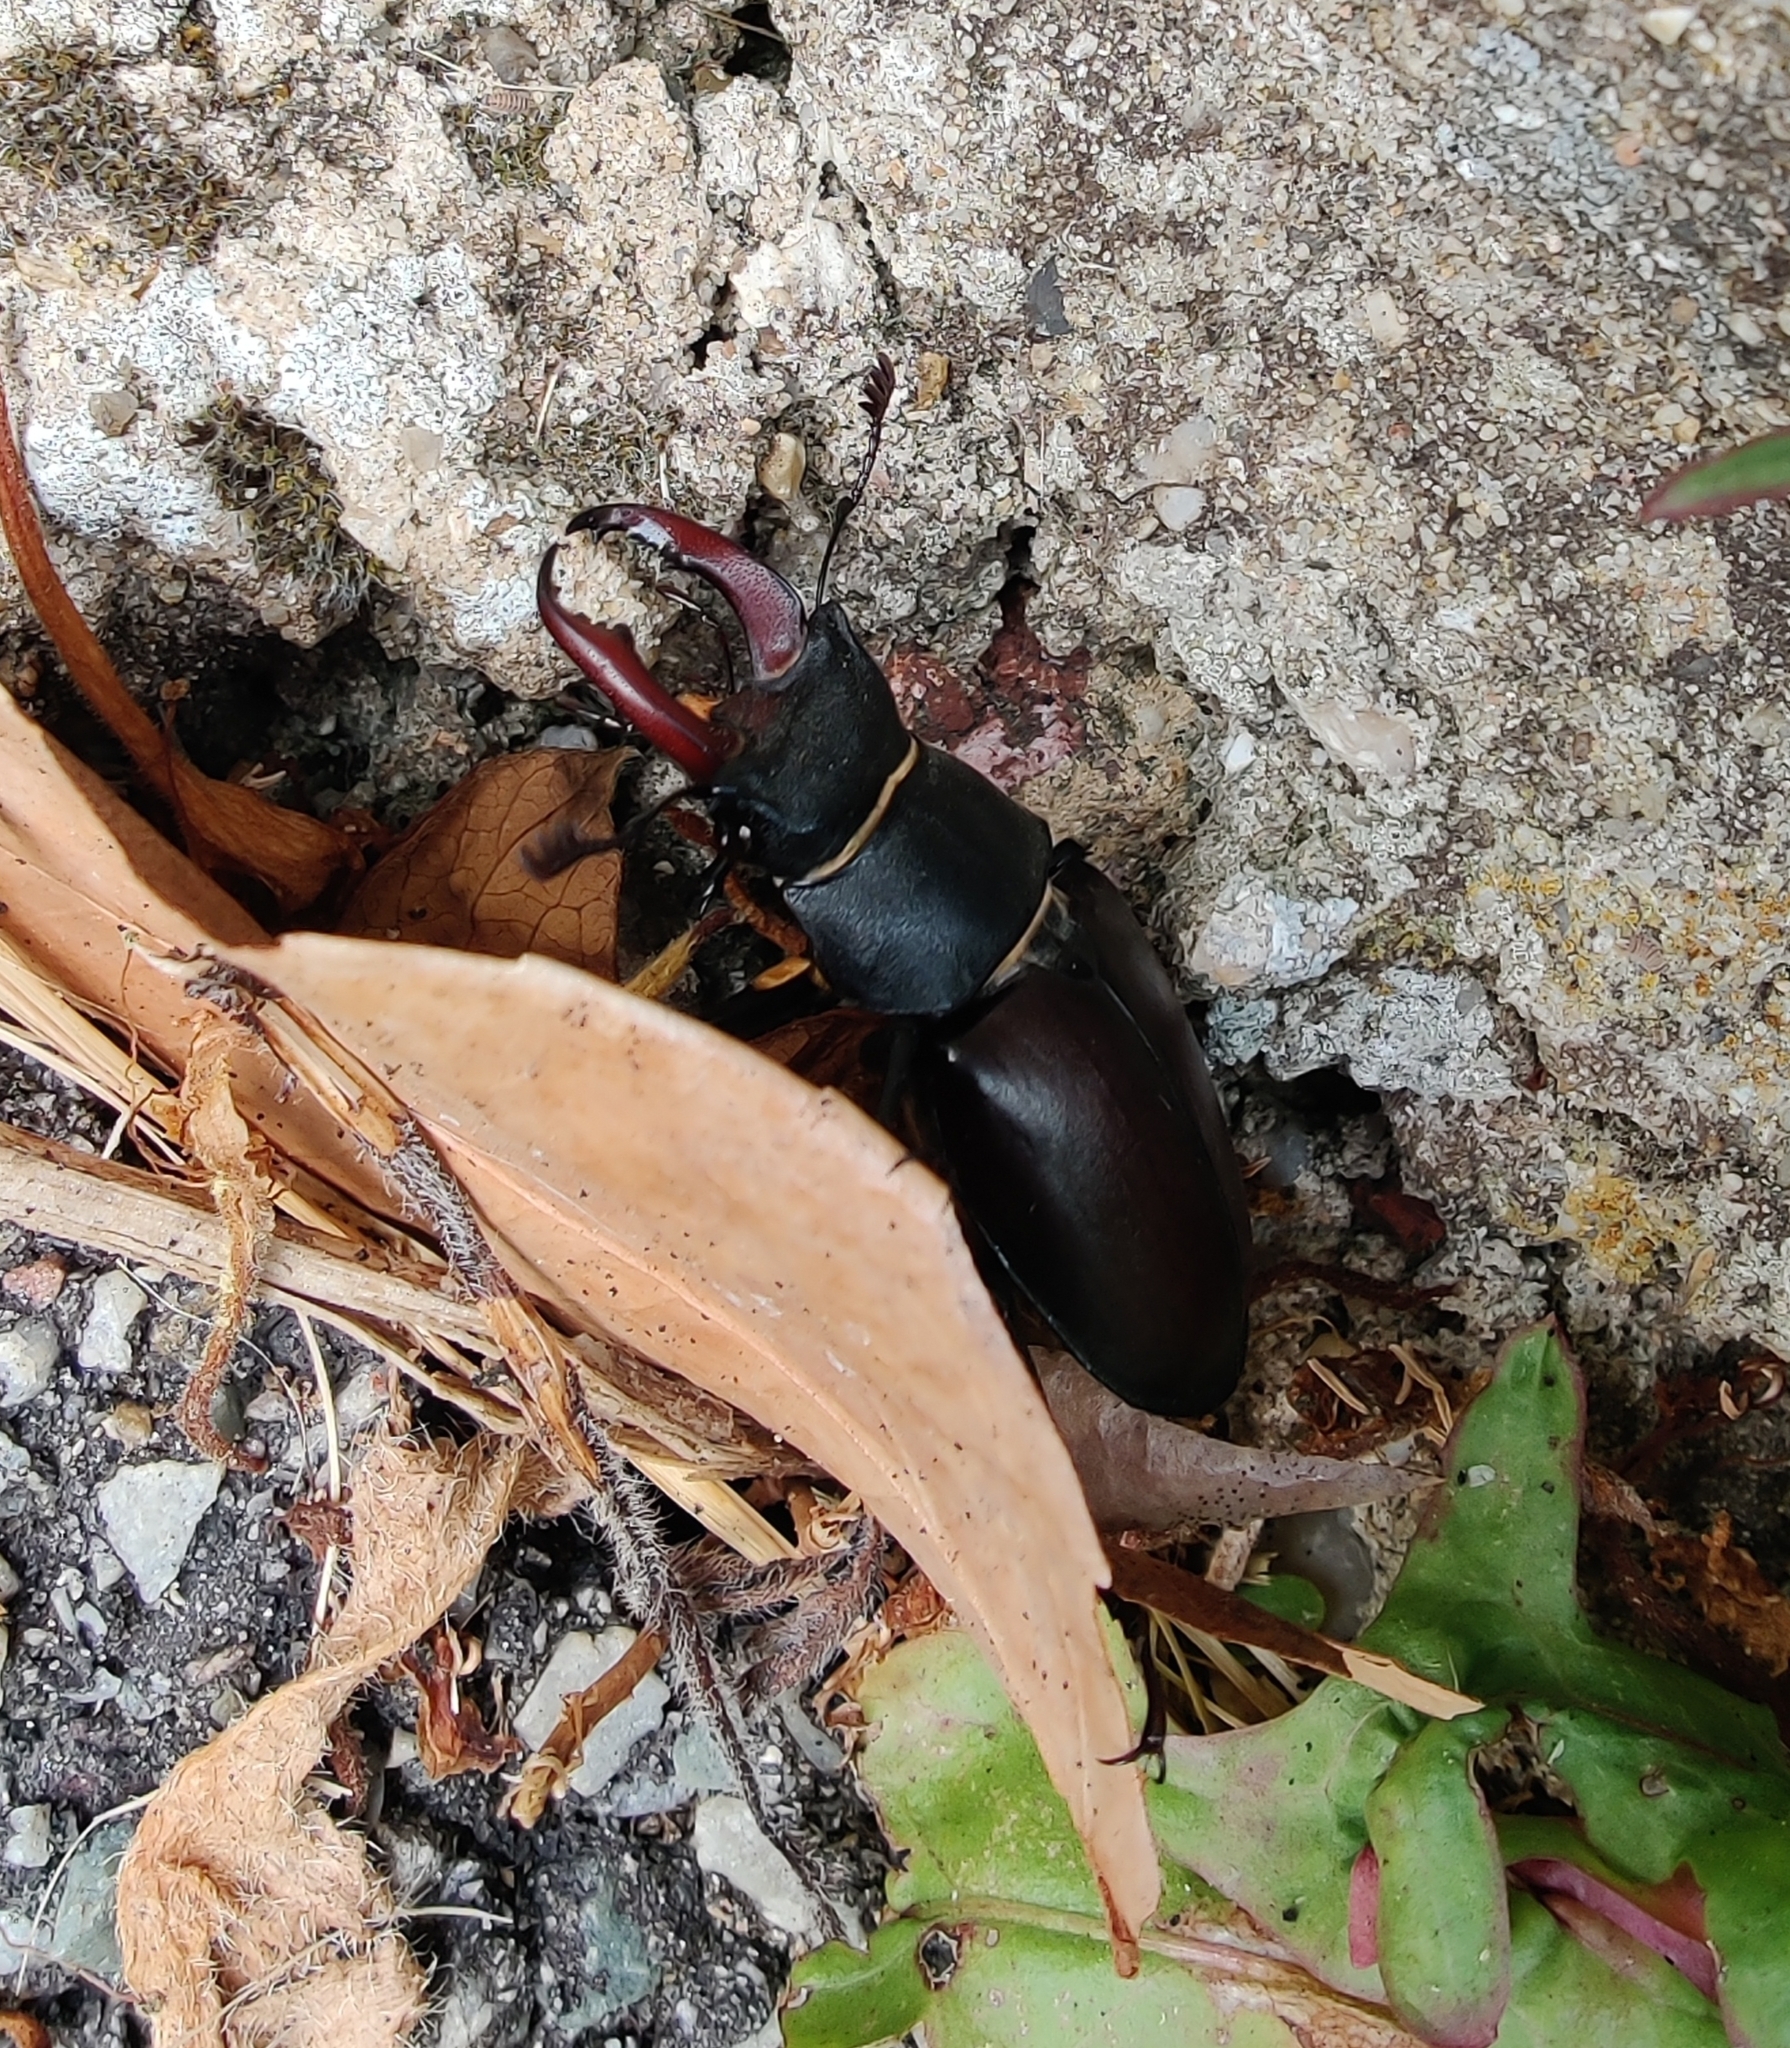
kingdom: Animalia
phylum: Arthropoda
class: Insecta
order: Coleoptera
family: Lucanidae
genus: Lucanus
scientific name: Lucanus cervus
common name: Stag beetle
